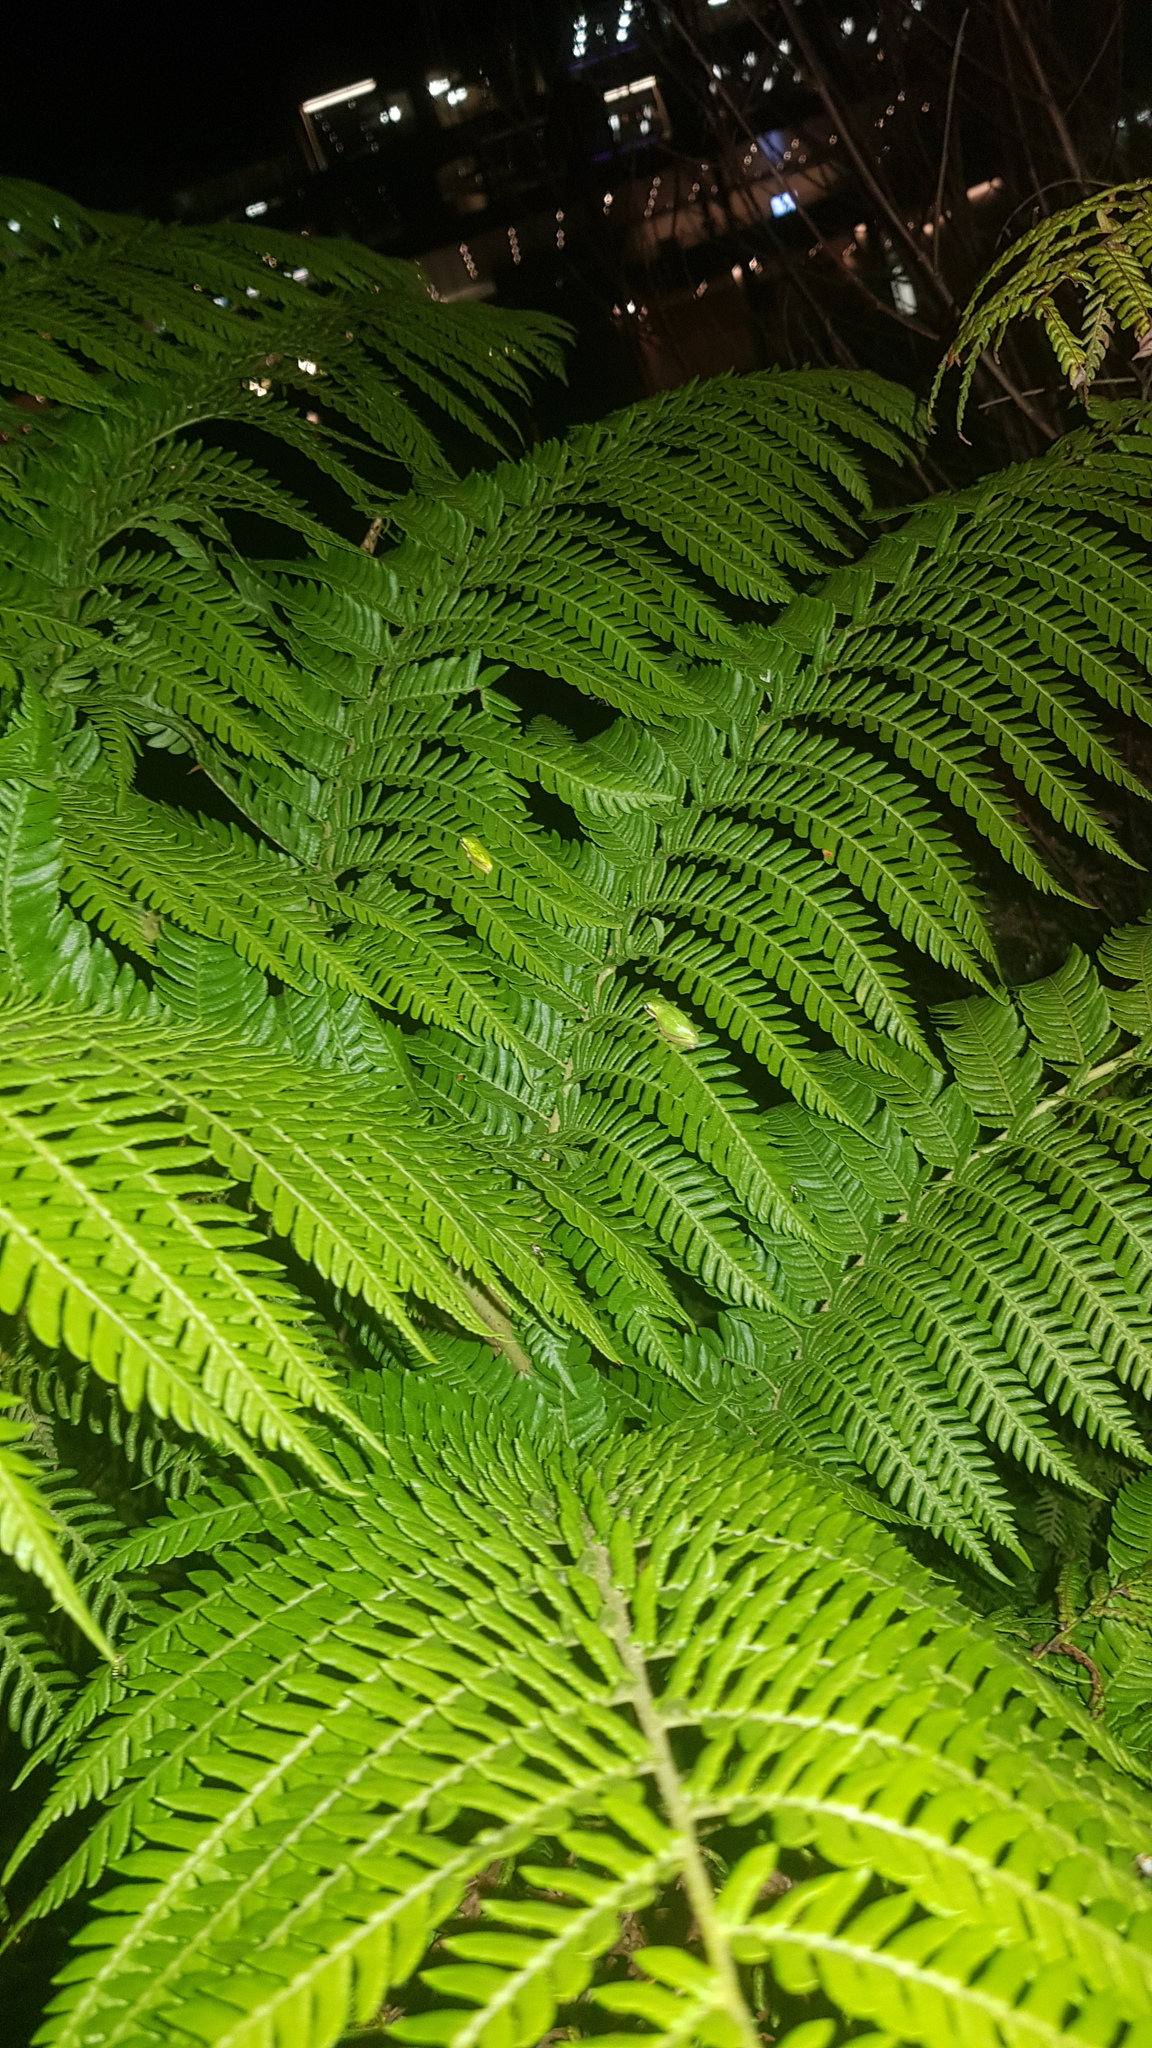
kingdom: Animalia
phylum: Chordata
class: Amphibia
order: Anura
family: Pelodryadidae
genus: Litoria
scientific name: Litoria fallax
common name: Eastern dwarf treefrog
